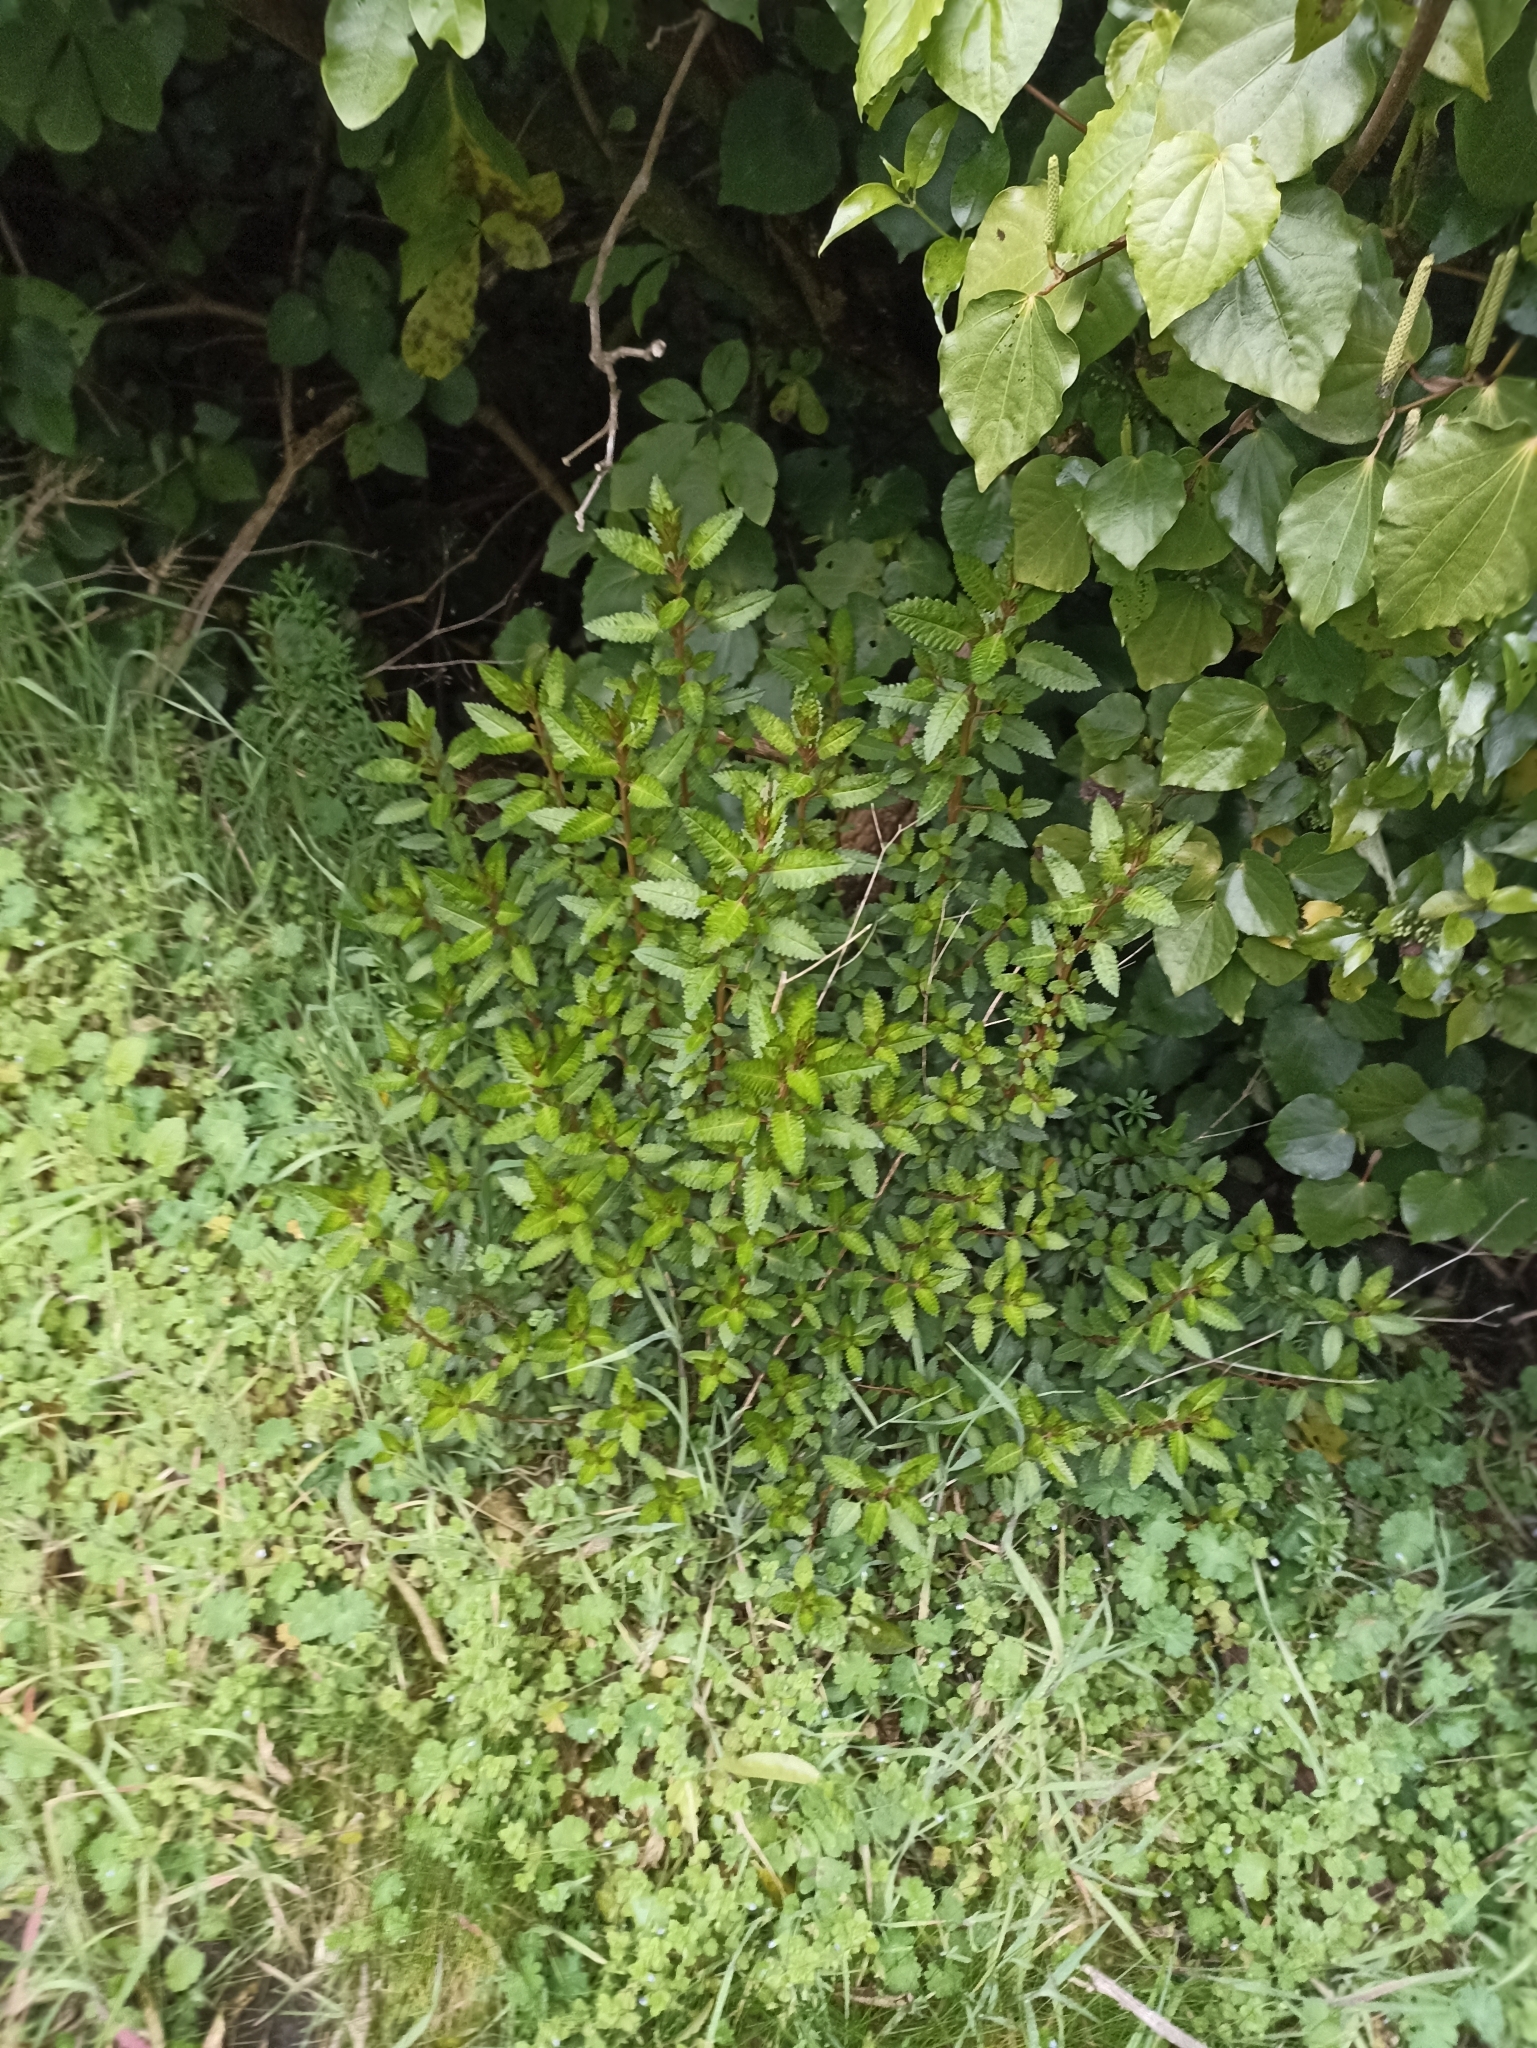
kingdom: Plantae
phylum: Tracheophyta
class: Magnoliopsida
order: Saxifragales
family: Haloragaceae
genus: Haloragis
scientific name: Haloragis erecta
